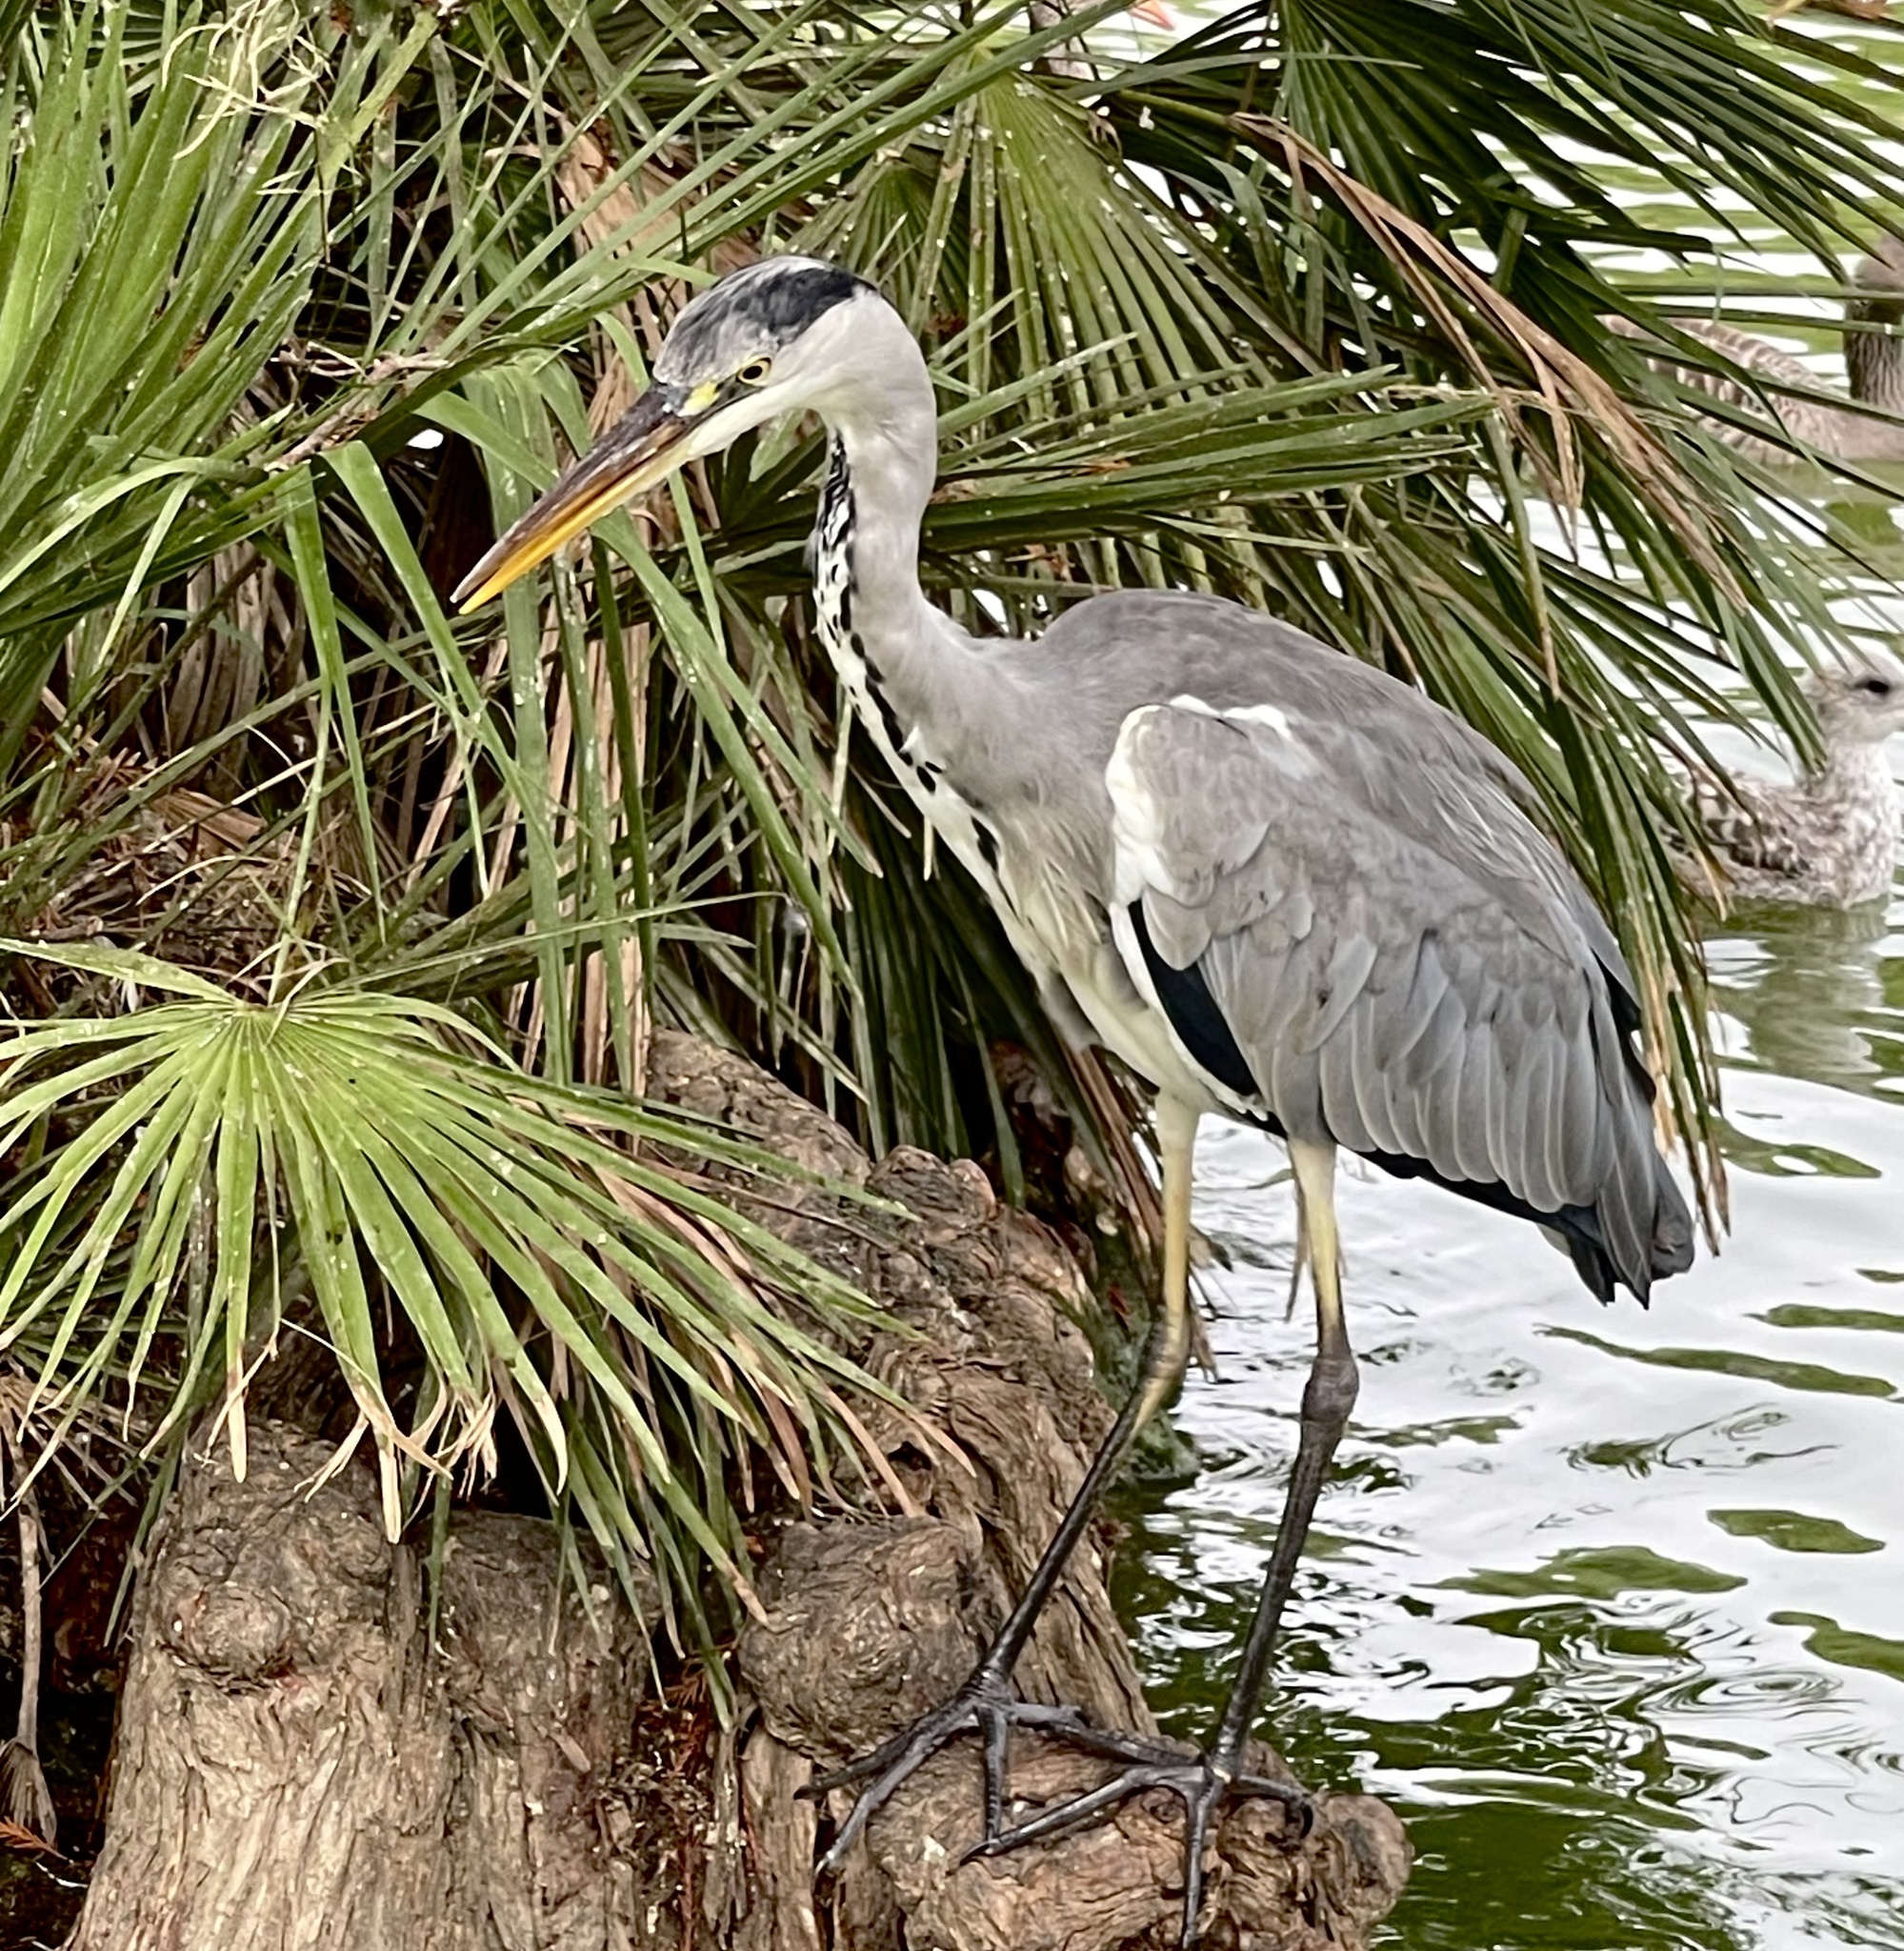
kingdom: Animalia
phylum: Chordata
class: Aves
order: Pelecaniformes
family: Ardeidae
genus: Ardea
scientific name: Ardea cinerea
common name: Grey heron
